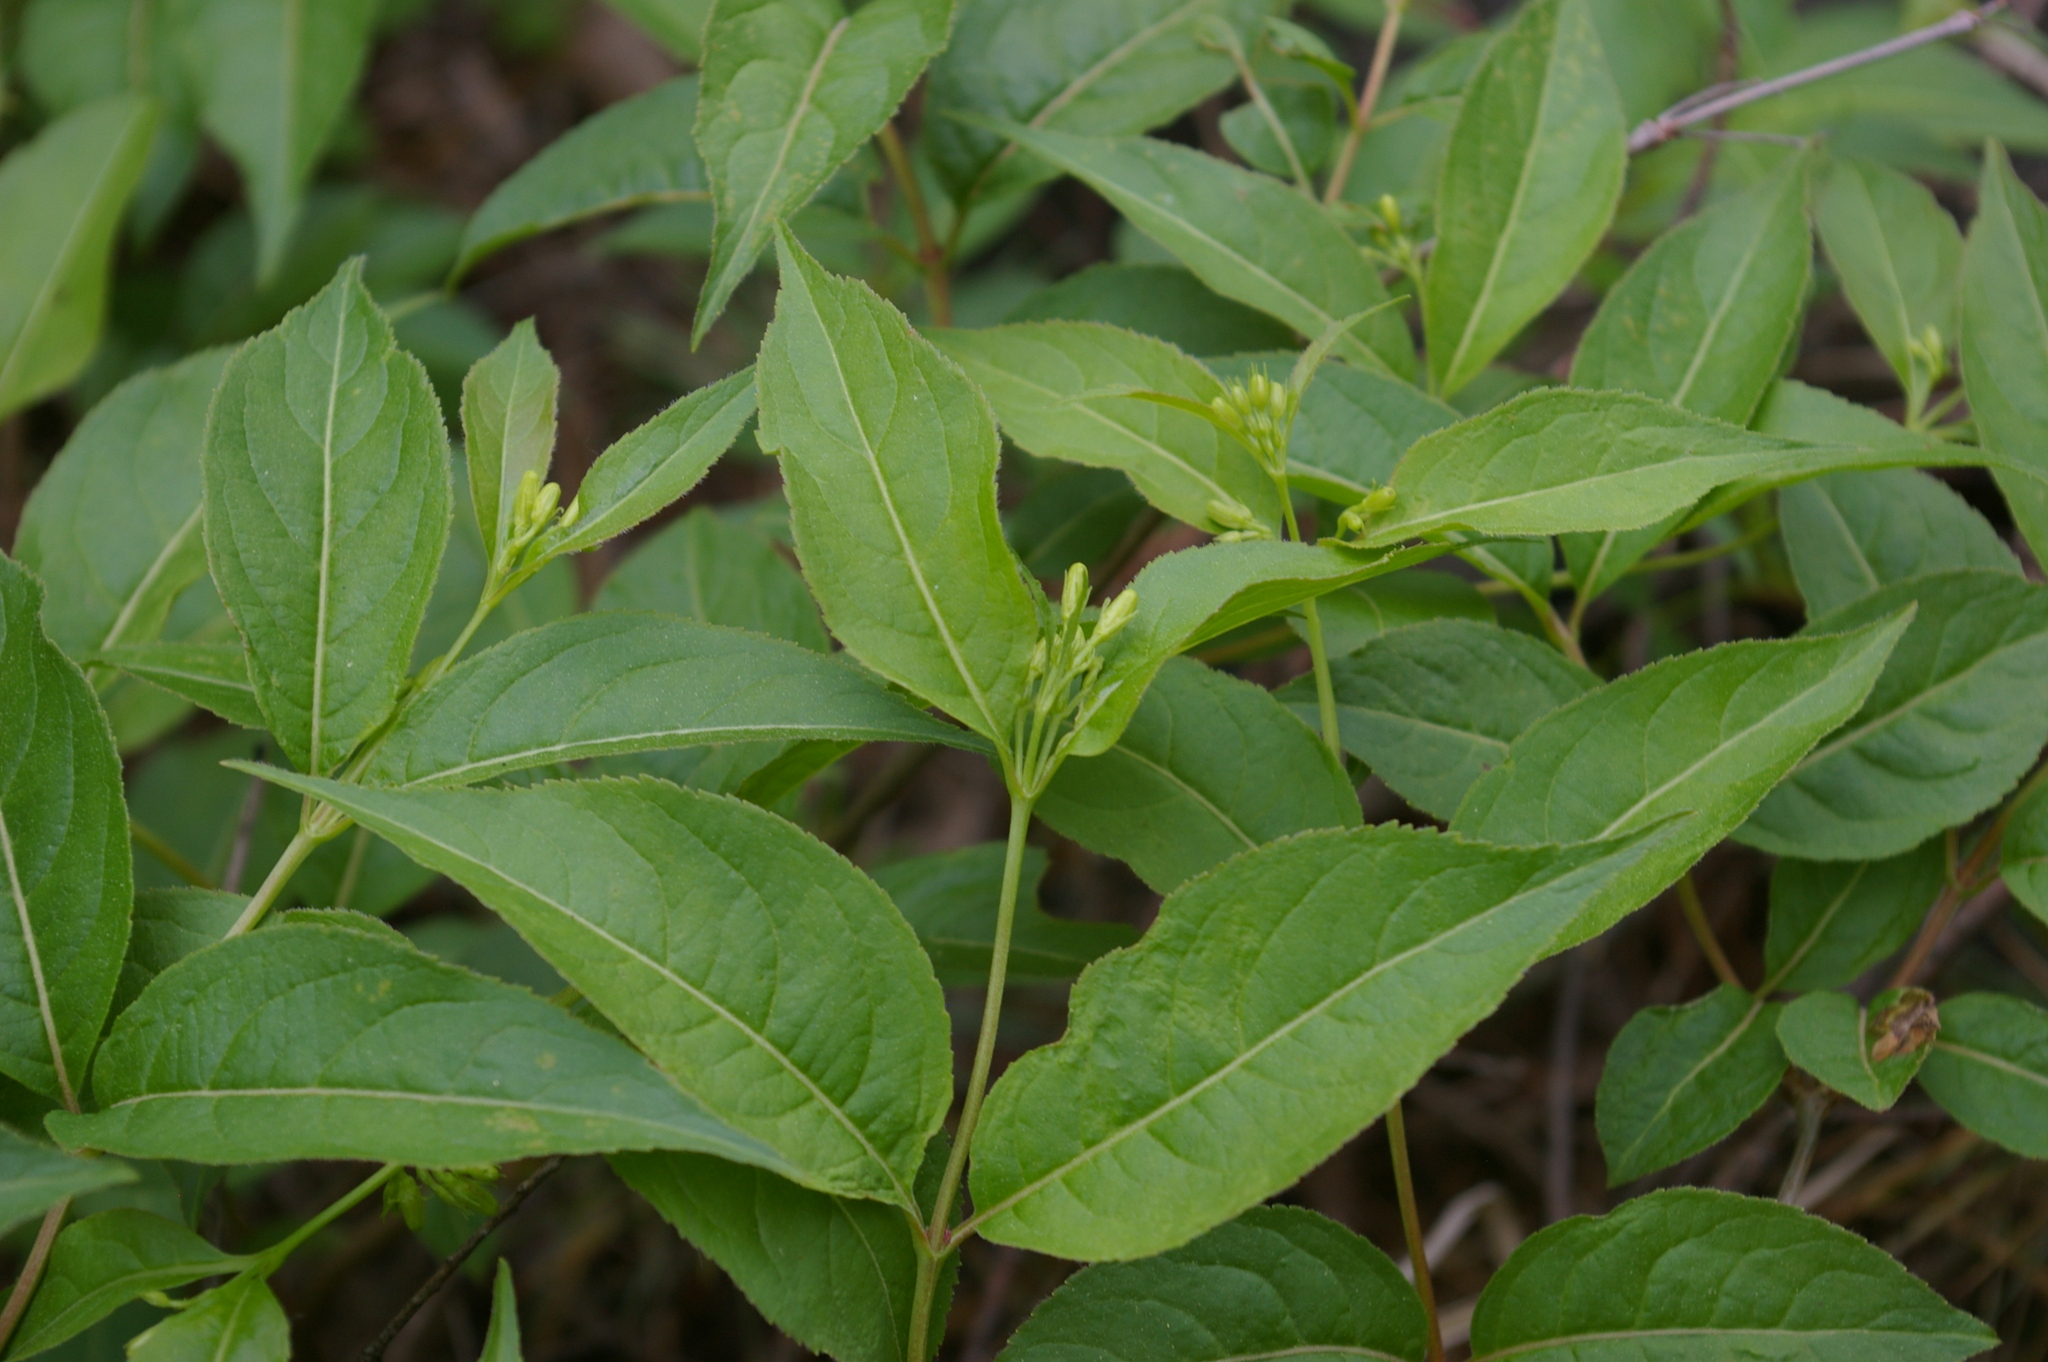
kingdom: Plantae
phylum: Tracheophyta
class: Magnoliopsida
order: Dipsacales
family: Caprifoliaceae
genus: Diervilla
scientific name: Diervilla lonicera
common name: Bush-honeysuckle
